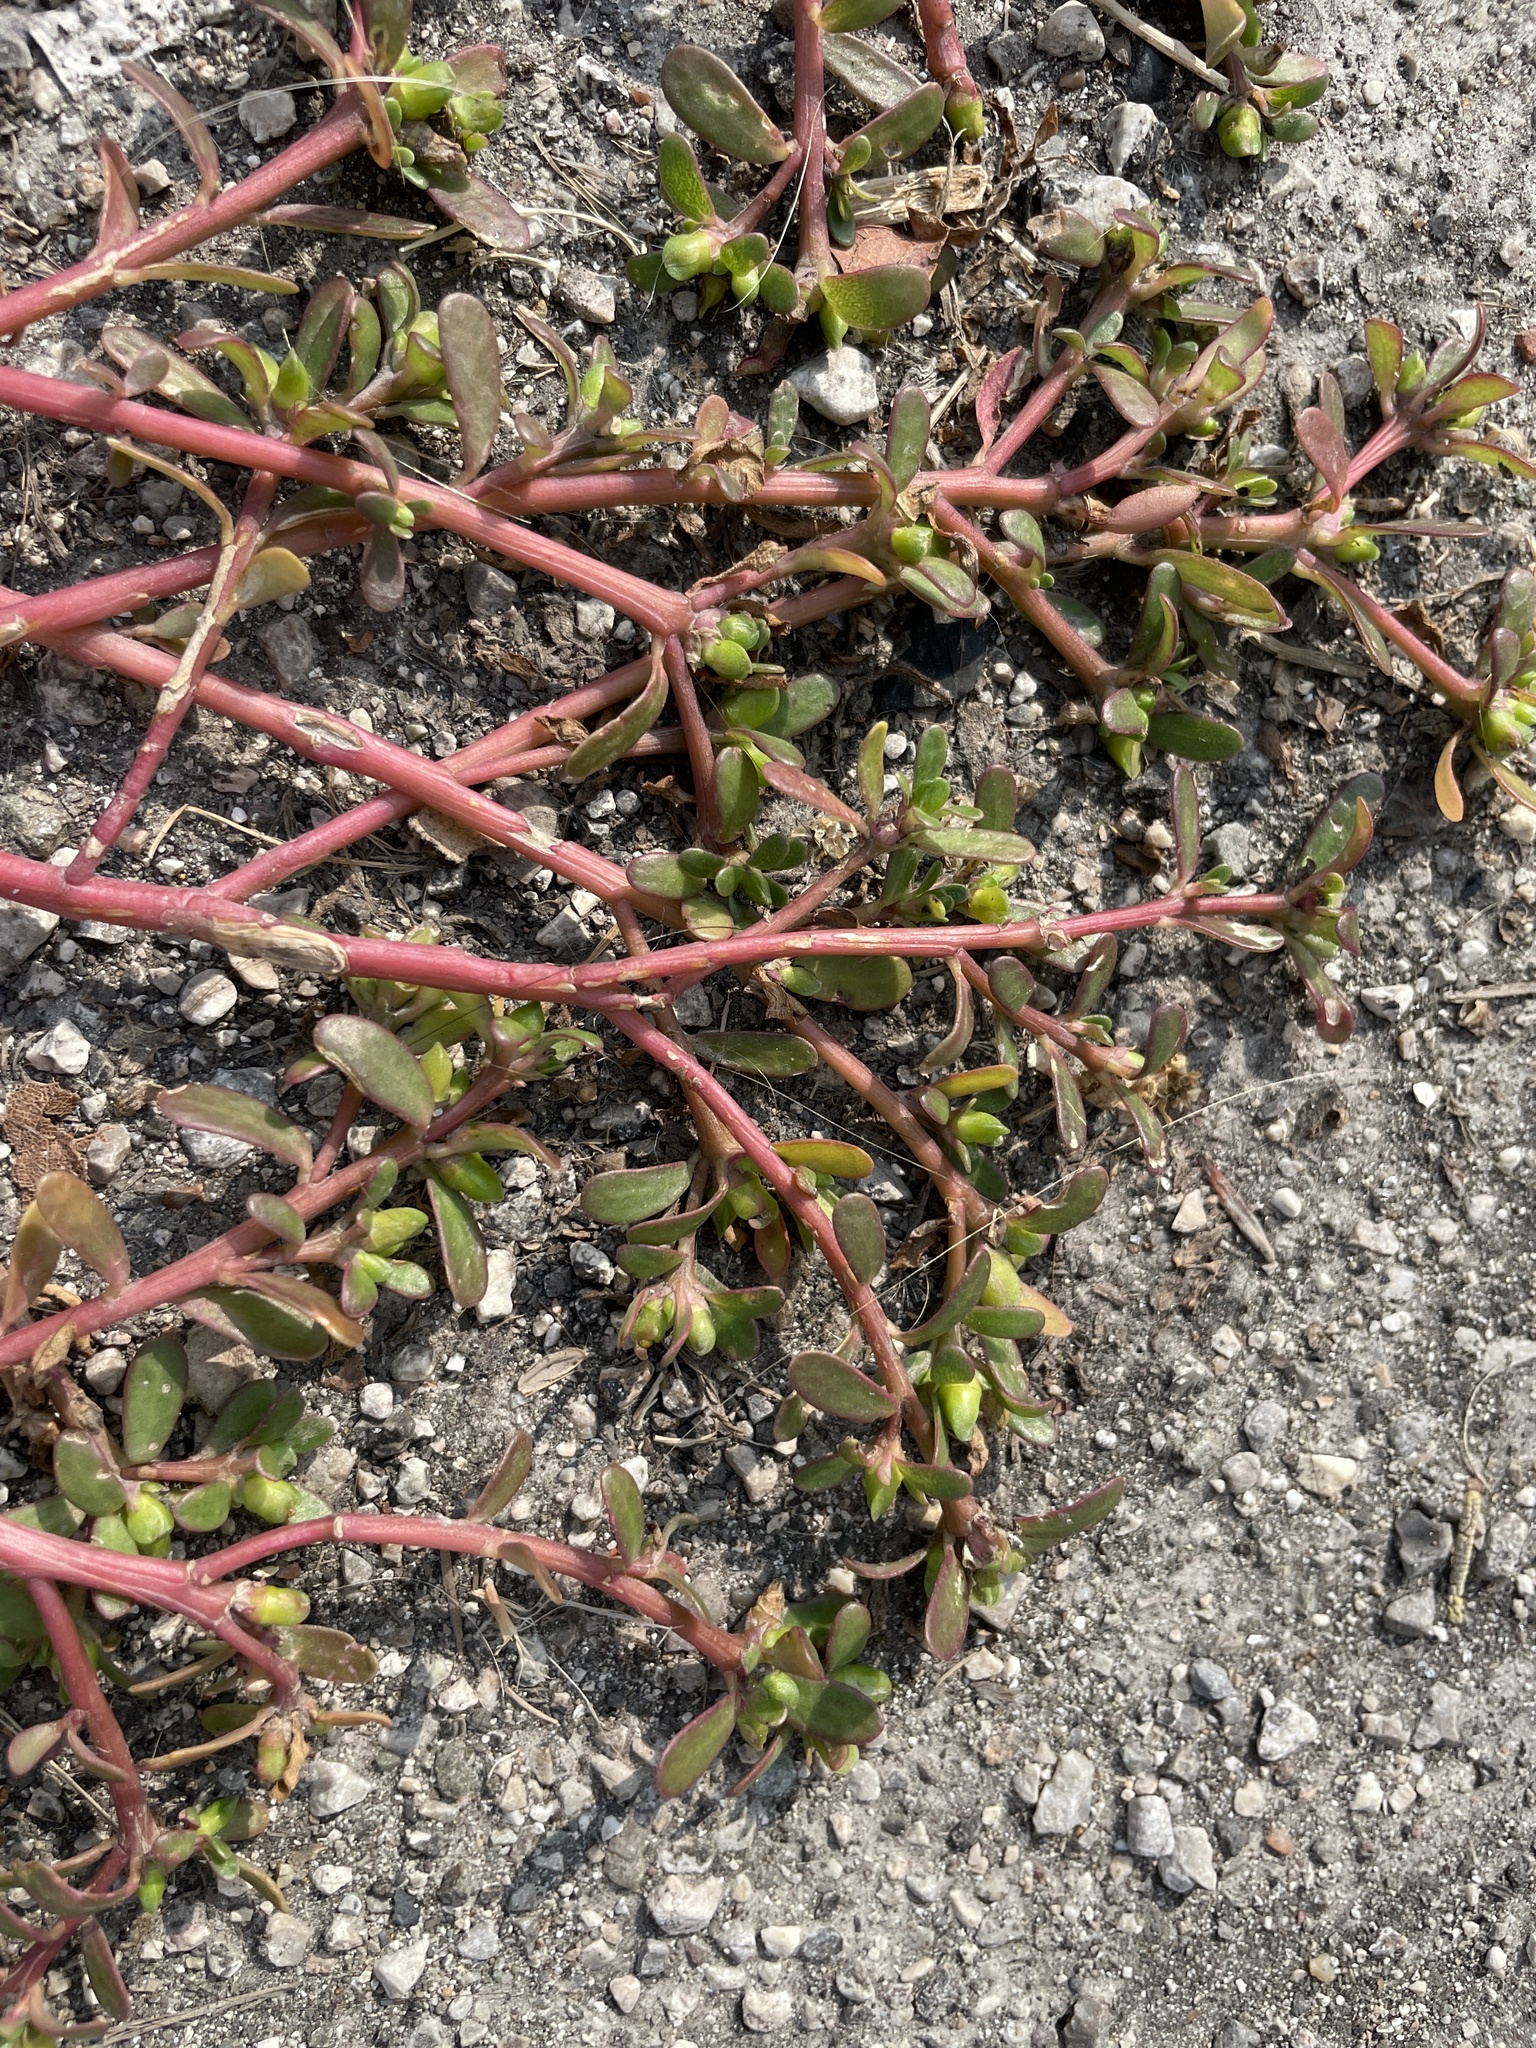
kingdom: Plantae
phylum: Tracheophyta
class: Magnoliopsida
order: Caryophyllales
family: Portulacaceae
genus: Portulaca
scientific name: Portulaca oleracea
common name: Common purslane
